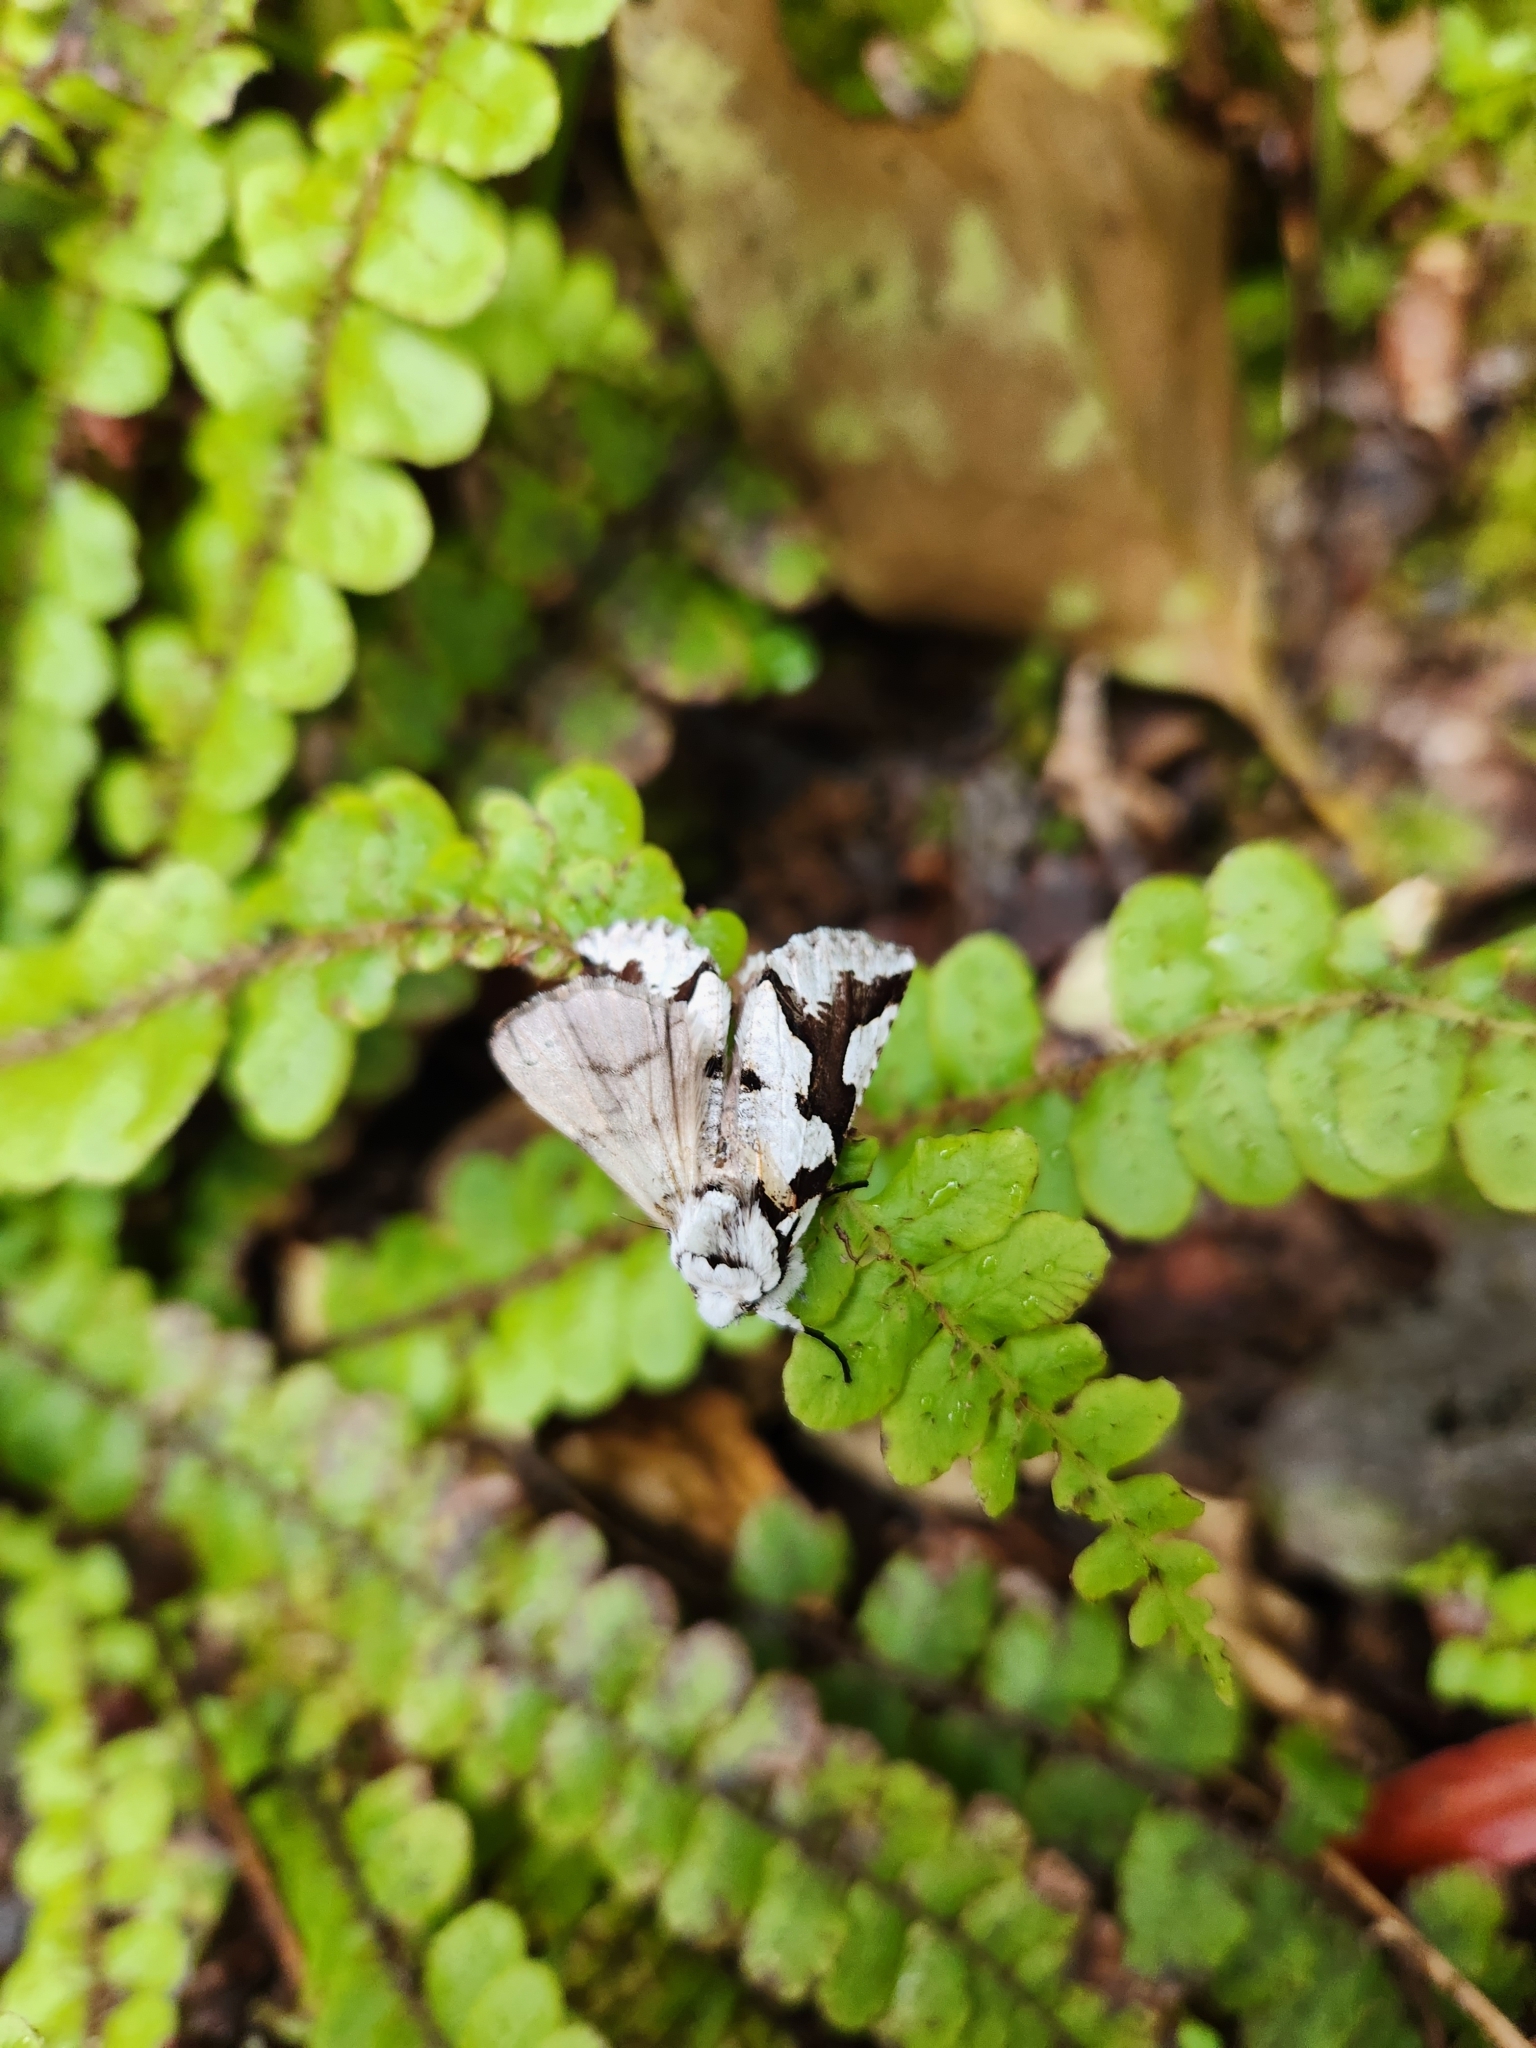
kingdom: Animalia
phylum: Arthropoda
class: Insecta
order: Lepidoptera
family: Geometridae
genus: Declana
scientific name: Declana
